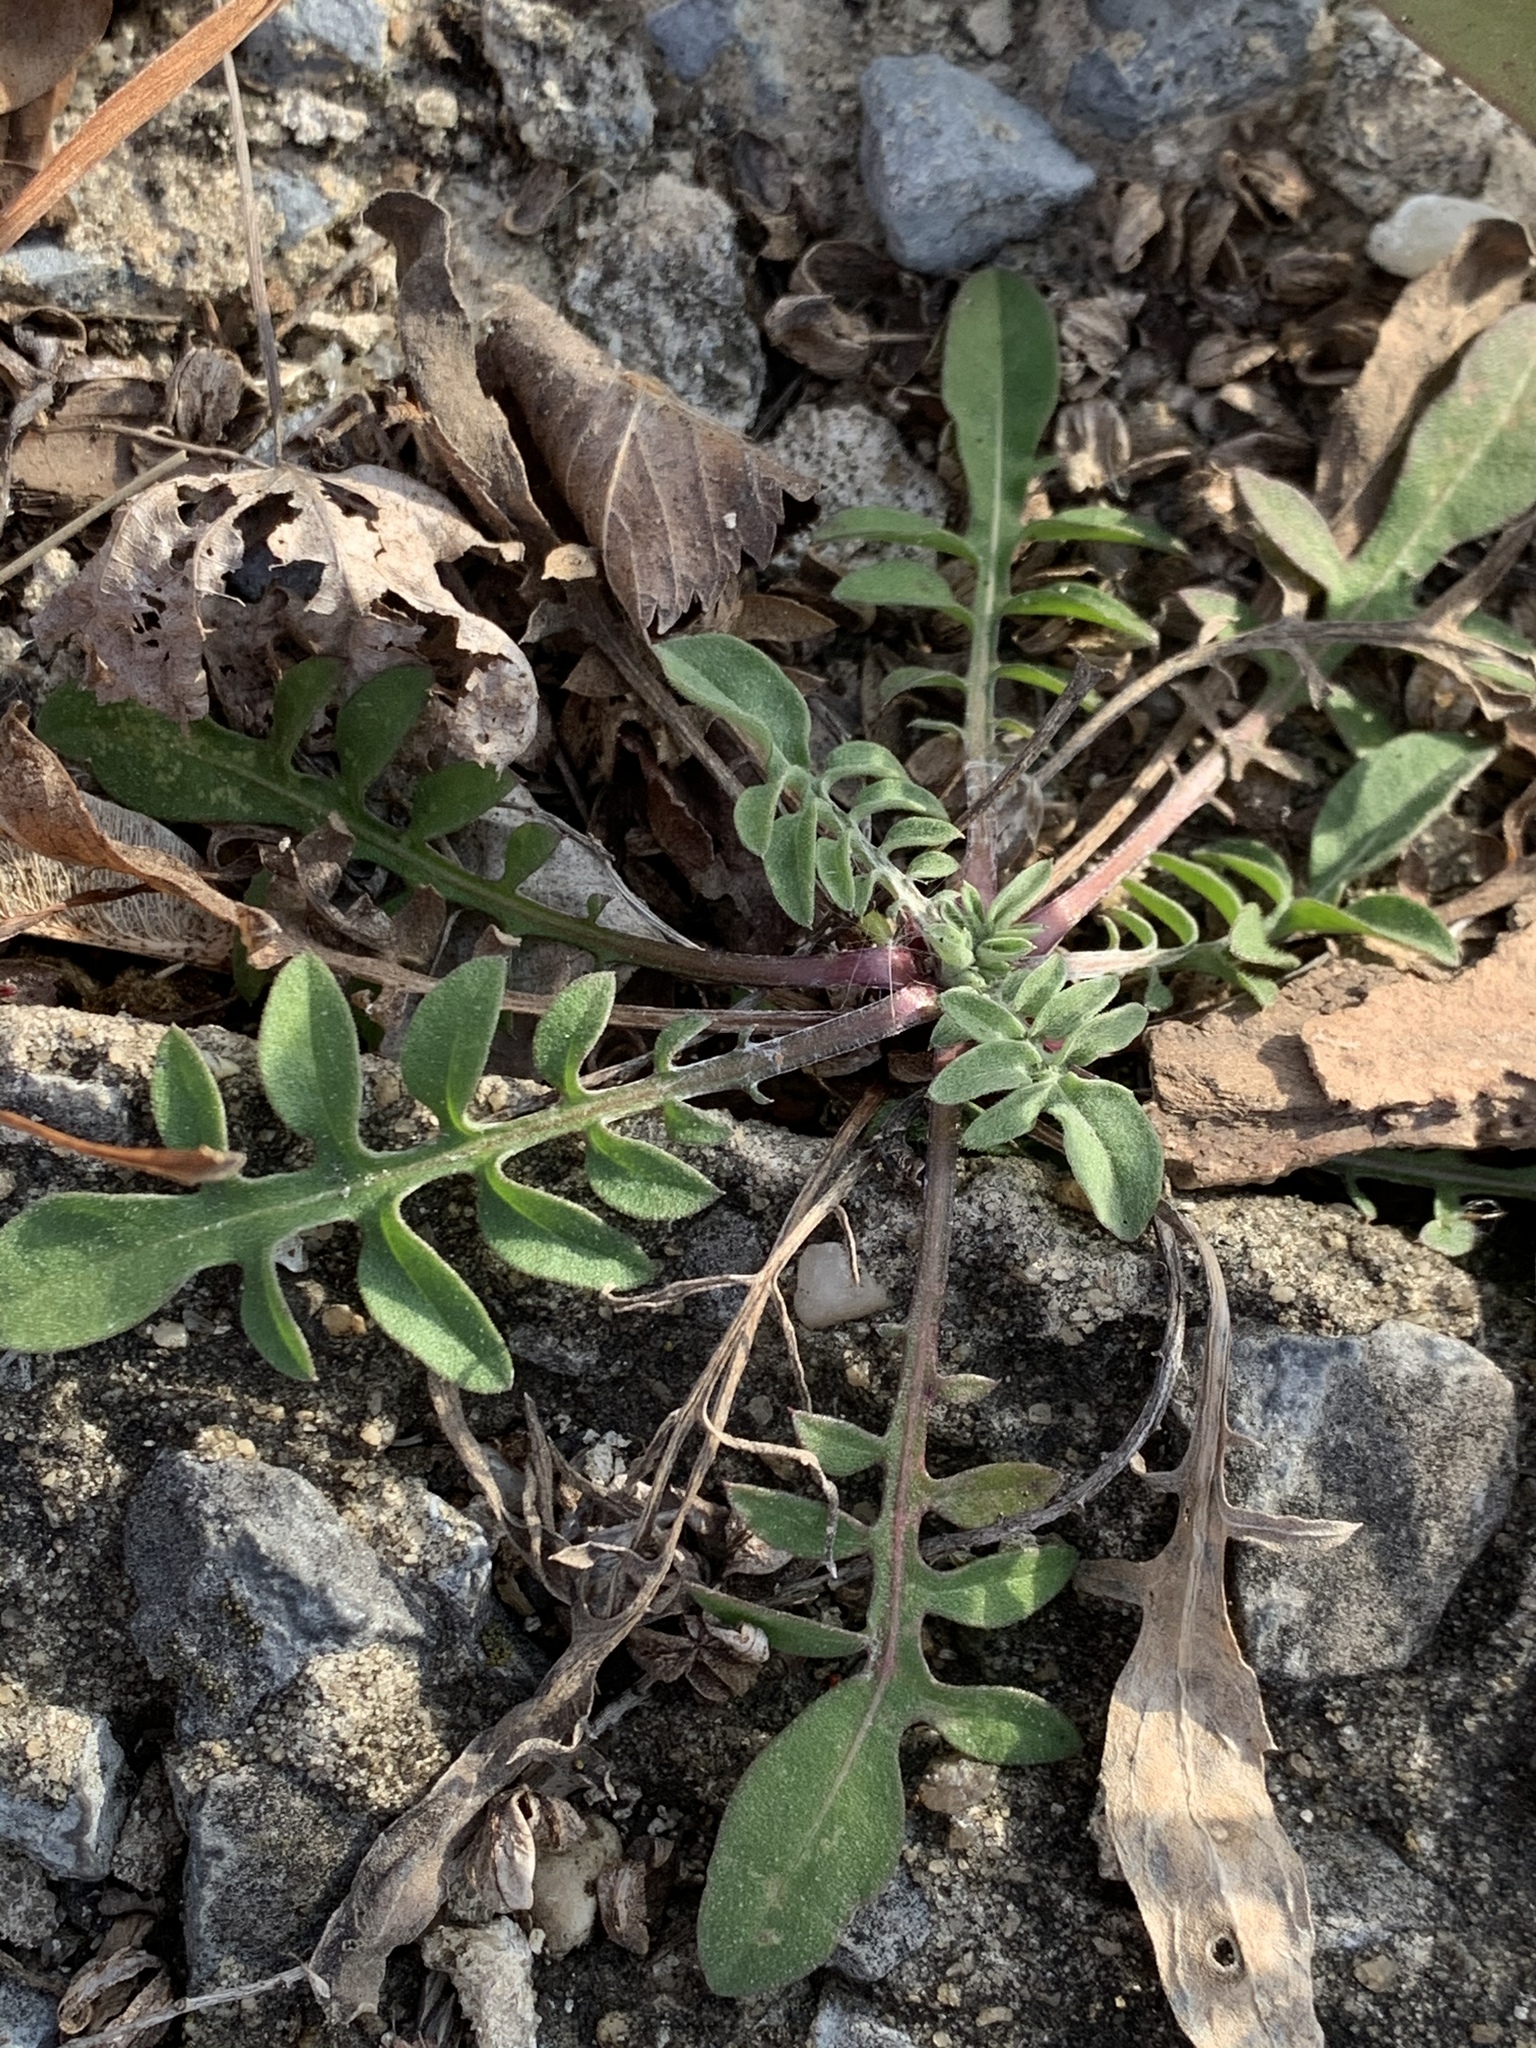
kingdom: Plantae
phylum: Tracheophyta
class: Magnoliopsida
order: Asterales
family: Asteraceae
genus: Centaurea
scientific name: Centaurea stoebe
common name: Spotted knapweed
